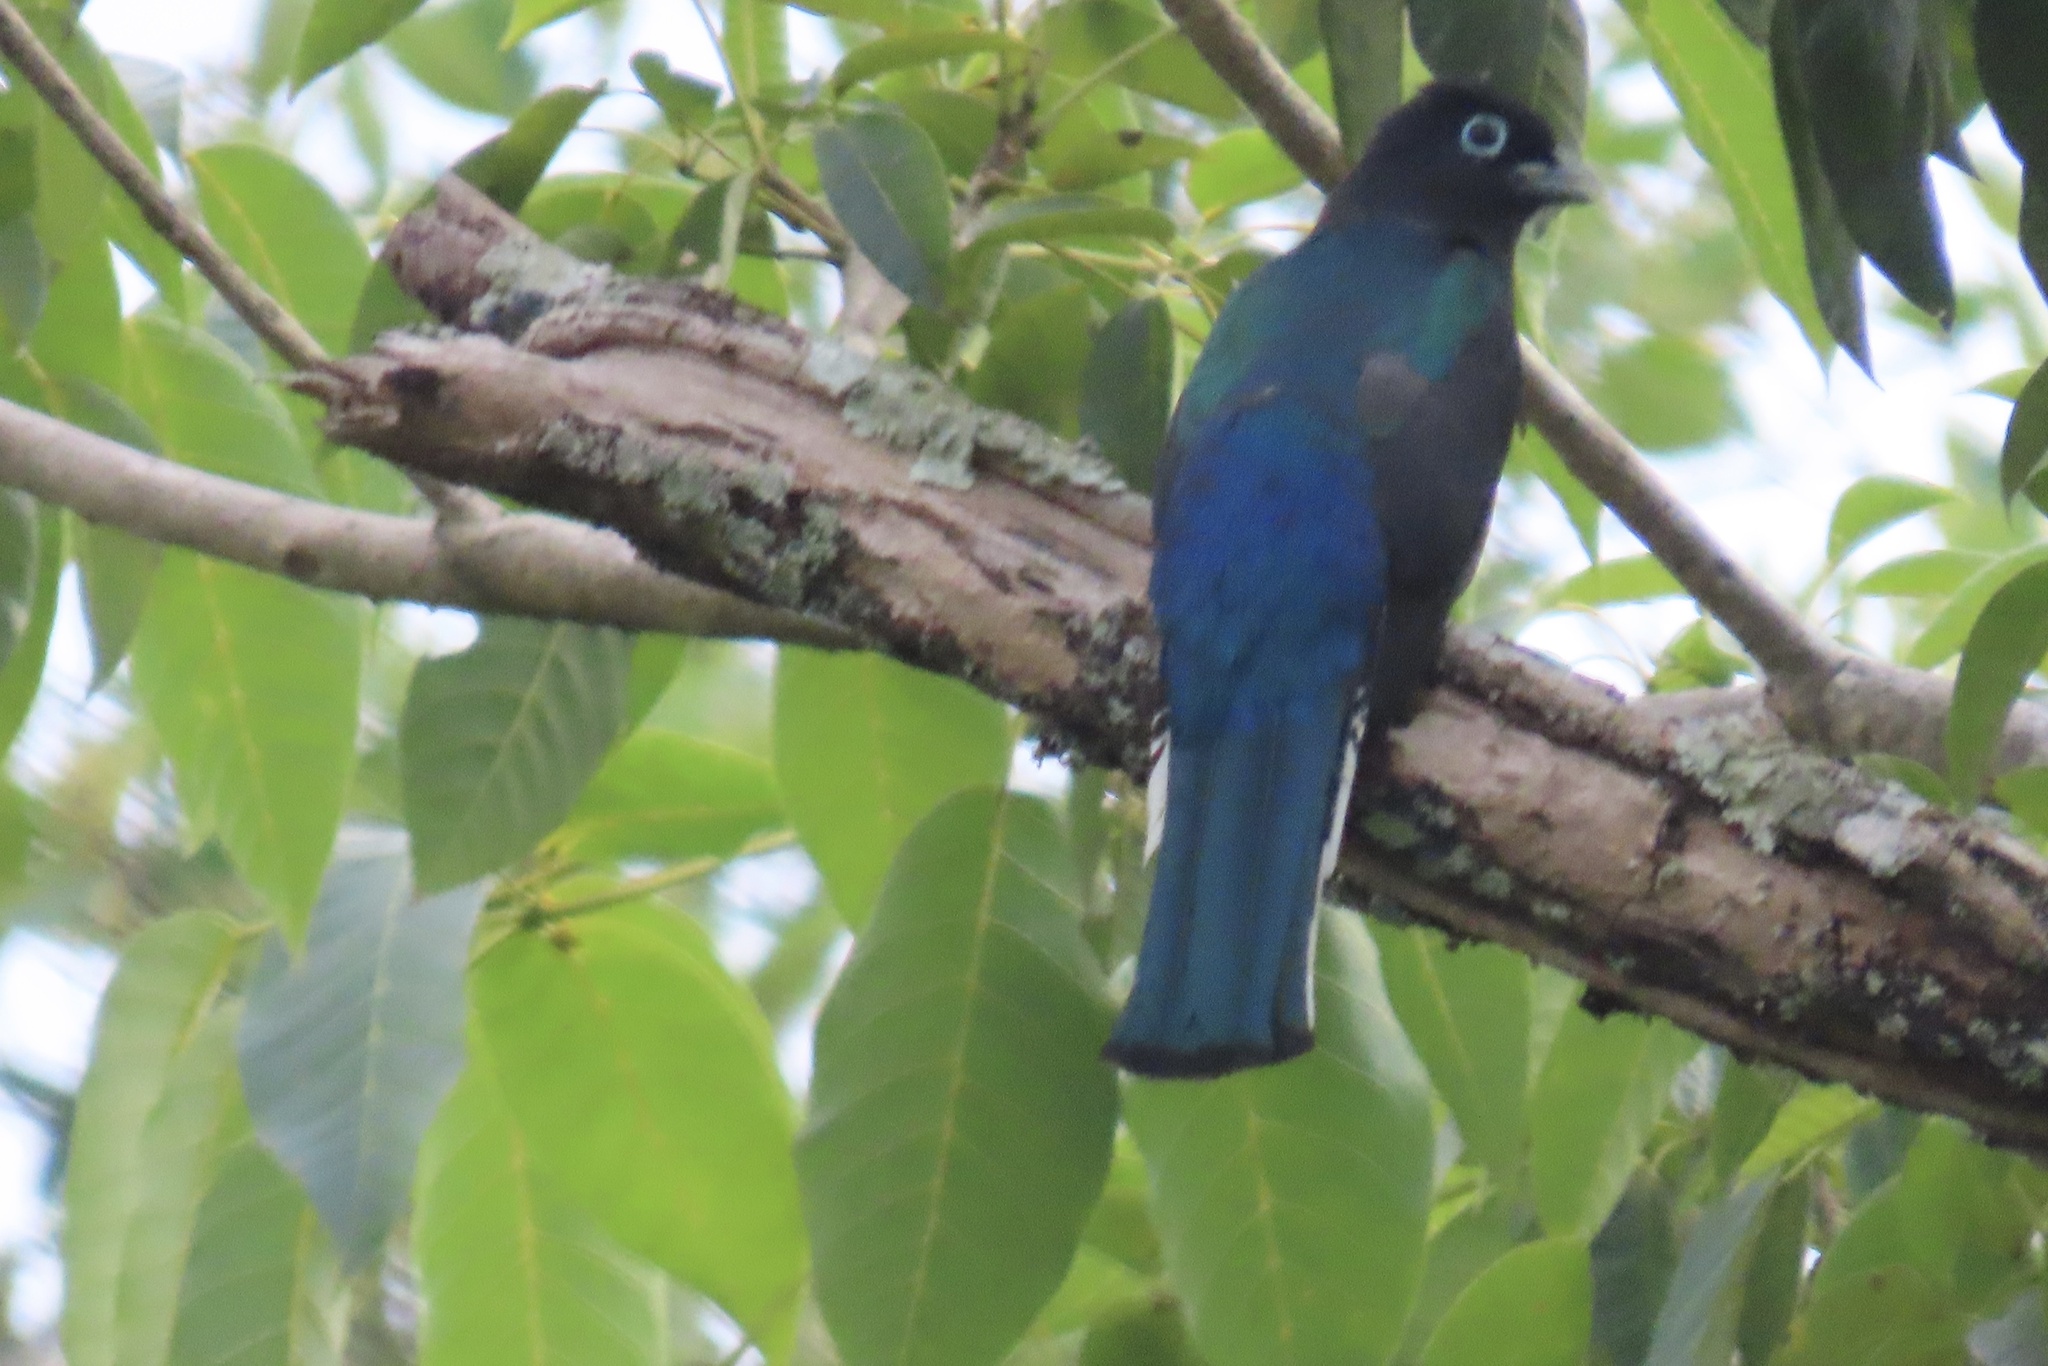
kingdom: Animalia
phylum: Chordata
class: Aves
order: Trogoniformes
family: Trogonidae
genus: Trogon
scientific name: Trogon melanocephalus
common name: Black-headed trogon
